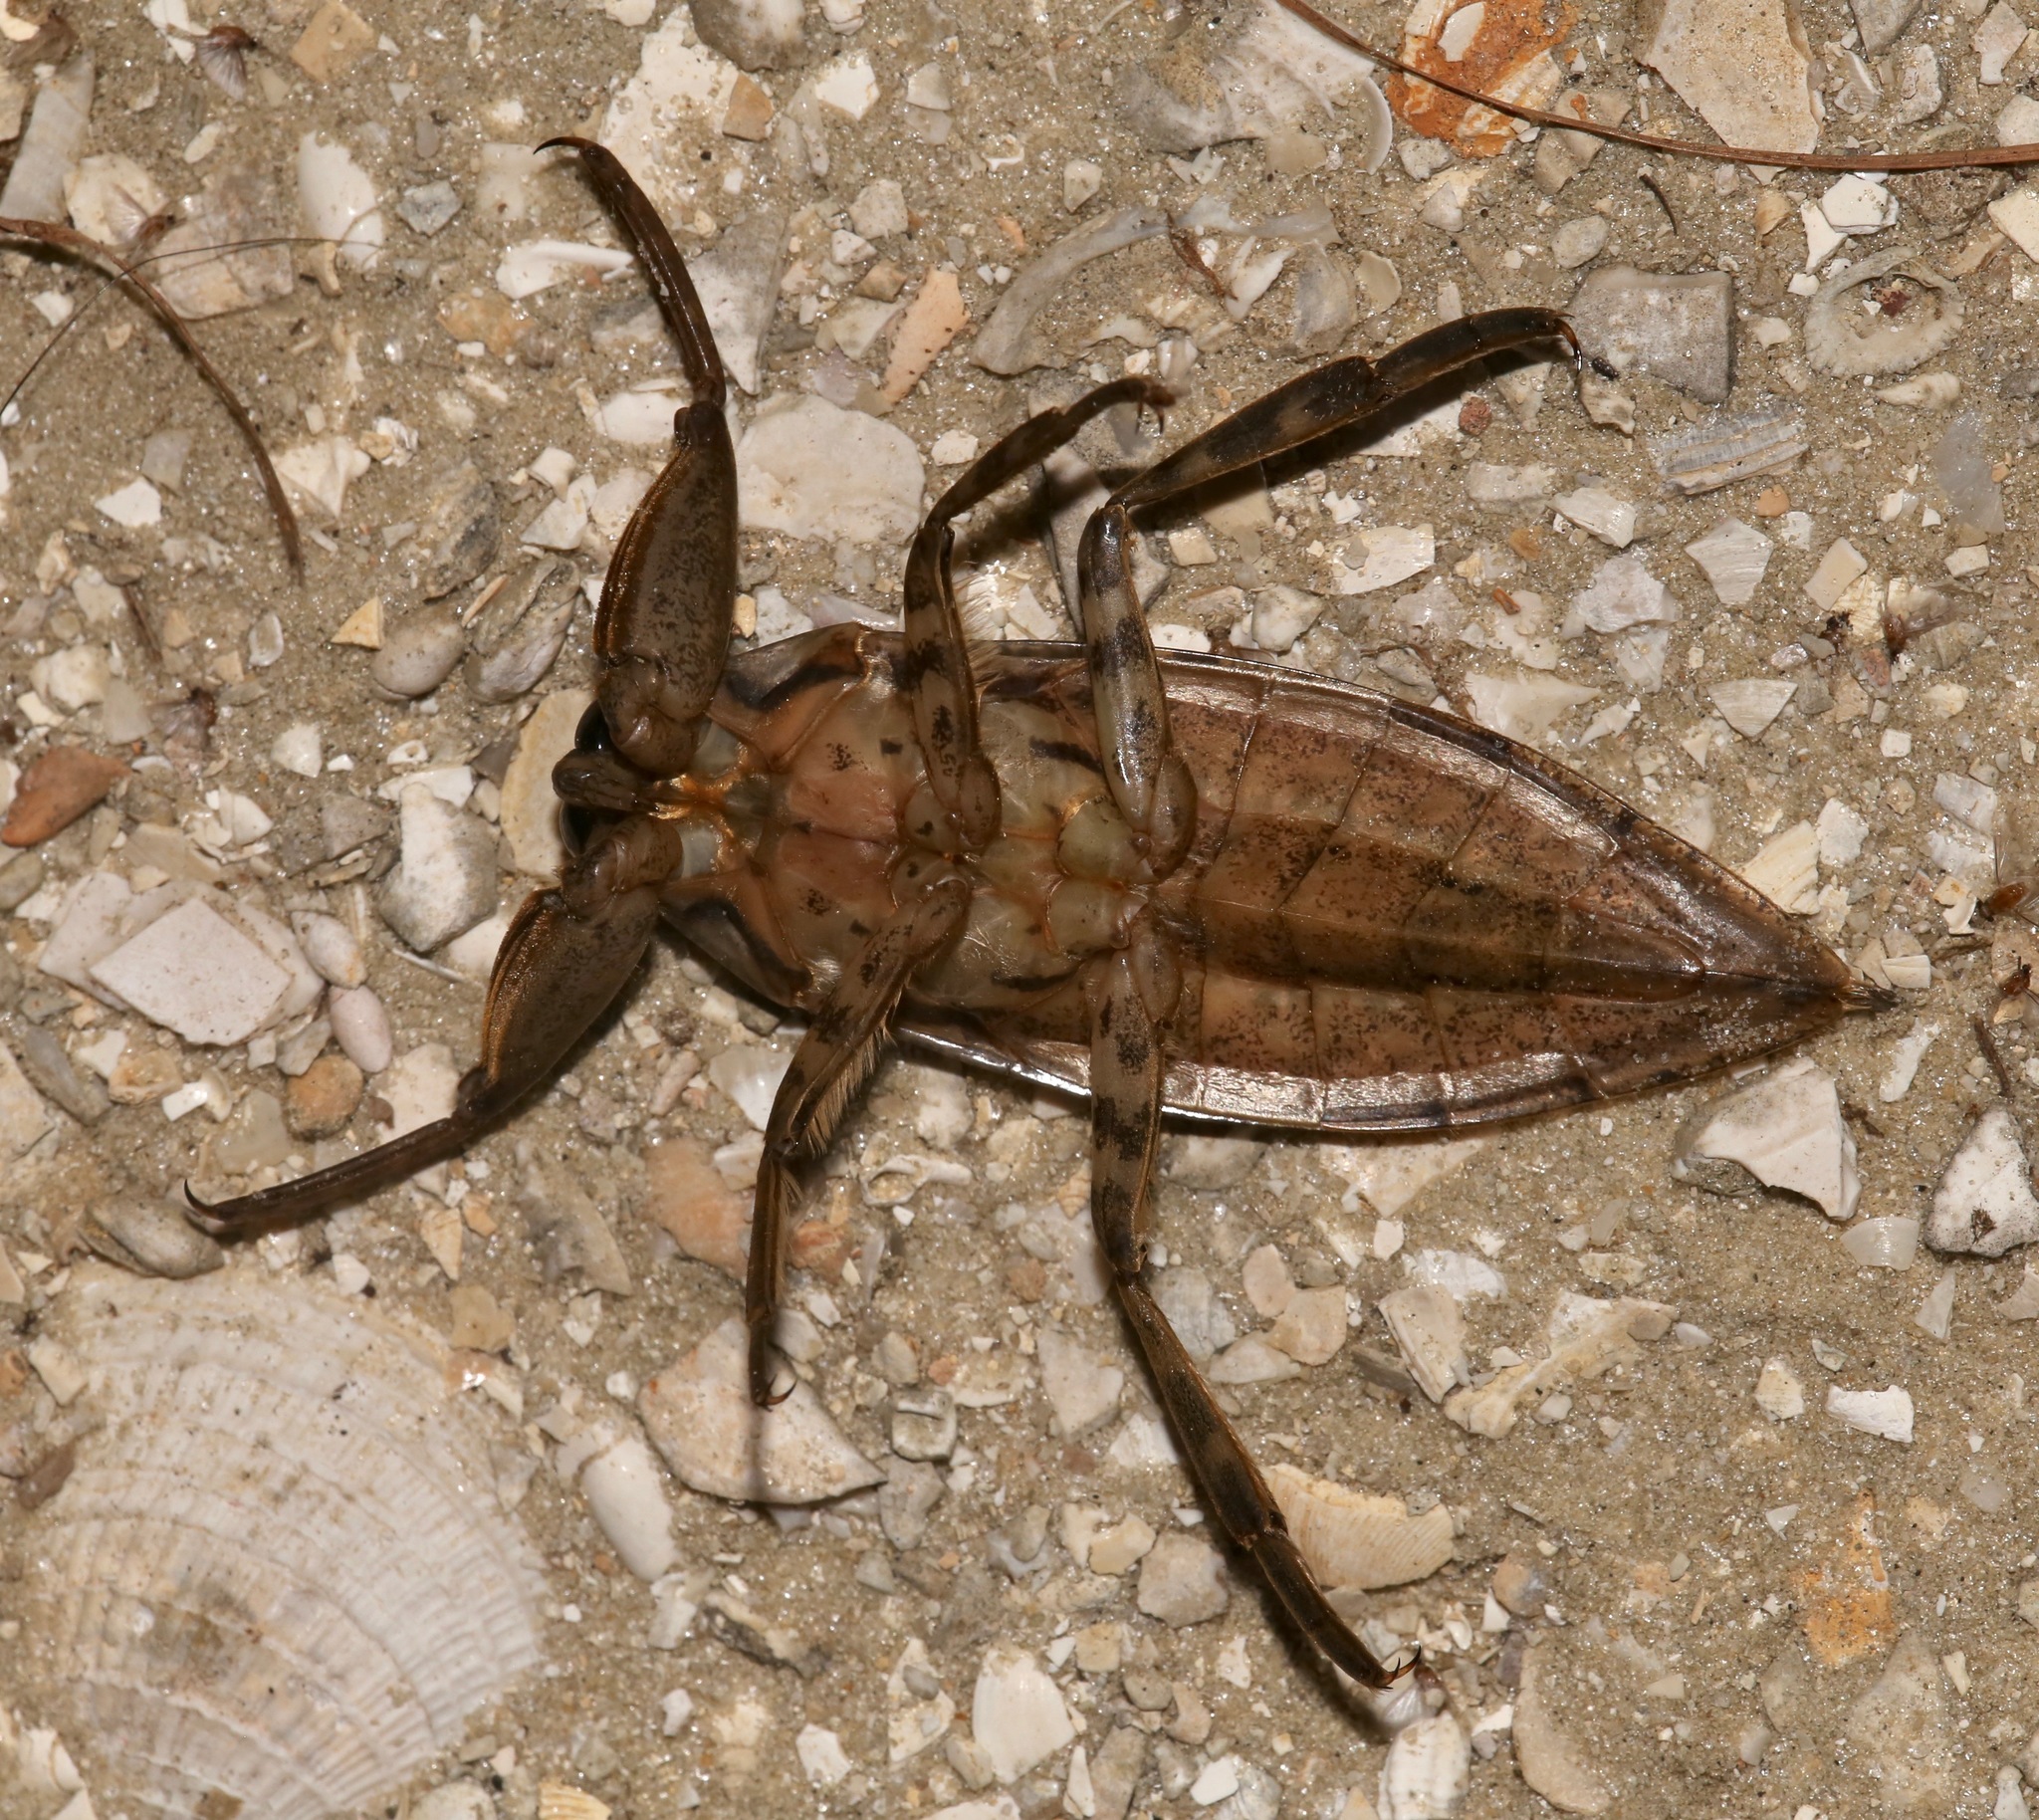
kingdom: Animalia
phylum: Arthropoda
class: Insecta
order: Hemiptera
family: Belostomatidae
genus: Lethocerus
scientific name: Lethocerus uhleri
